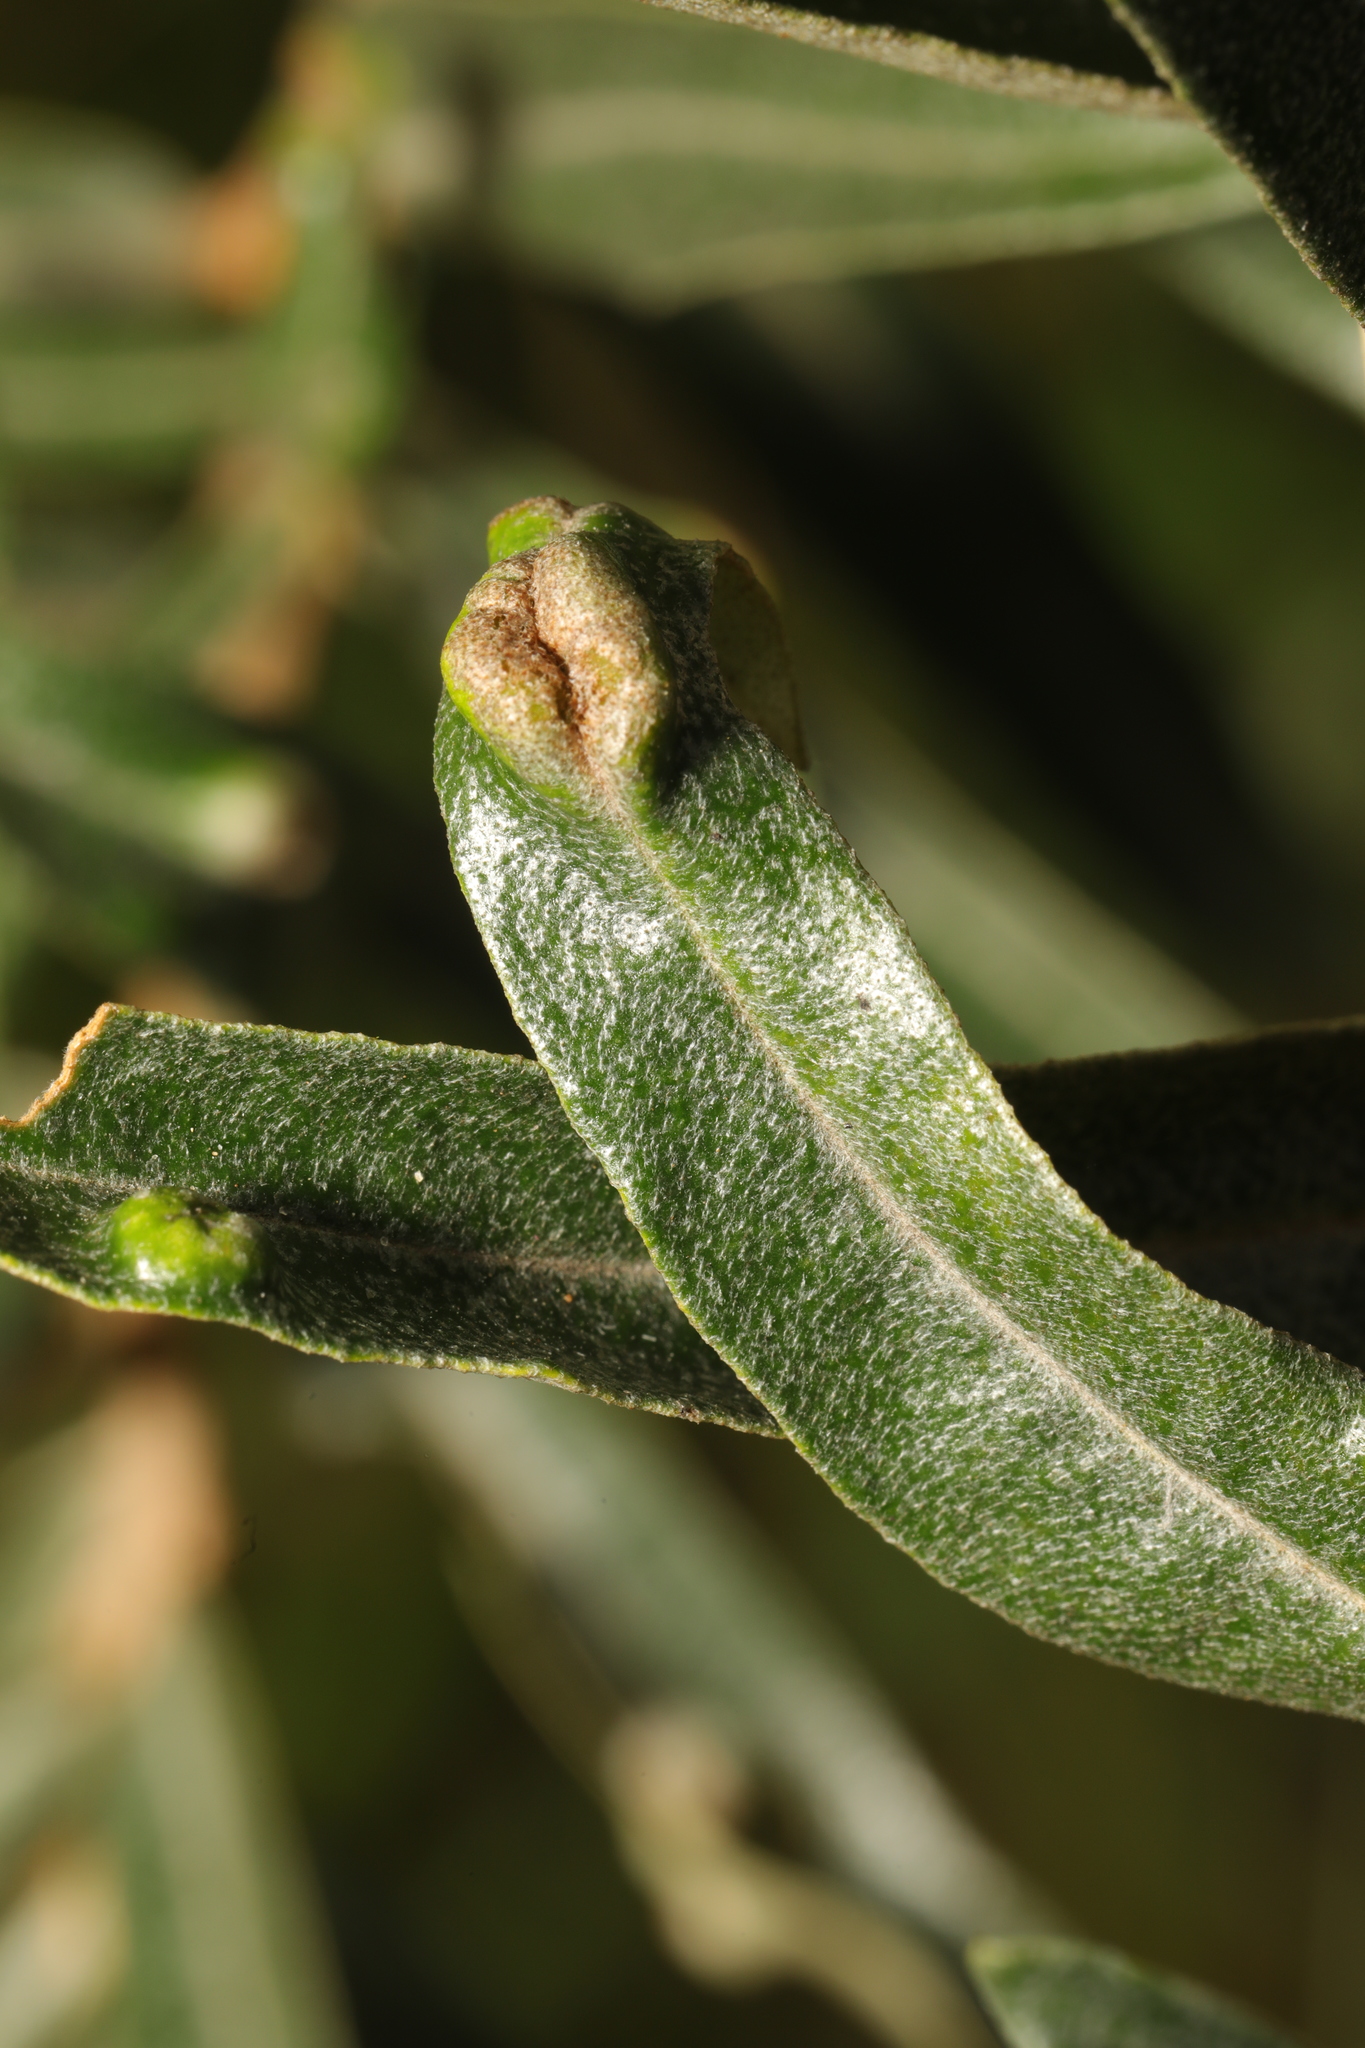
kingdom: Animalia
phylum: Arthropoda
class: Arachnida
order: Trombidiformes
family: Eriophyidae
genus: Aceria
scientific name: Aceria hippophaena
